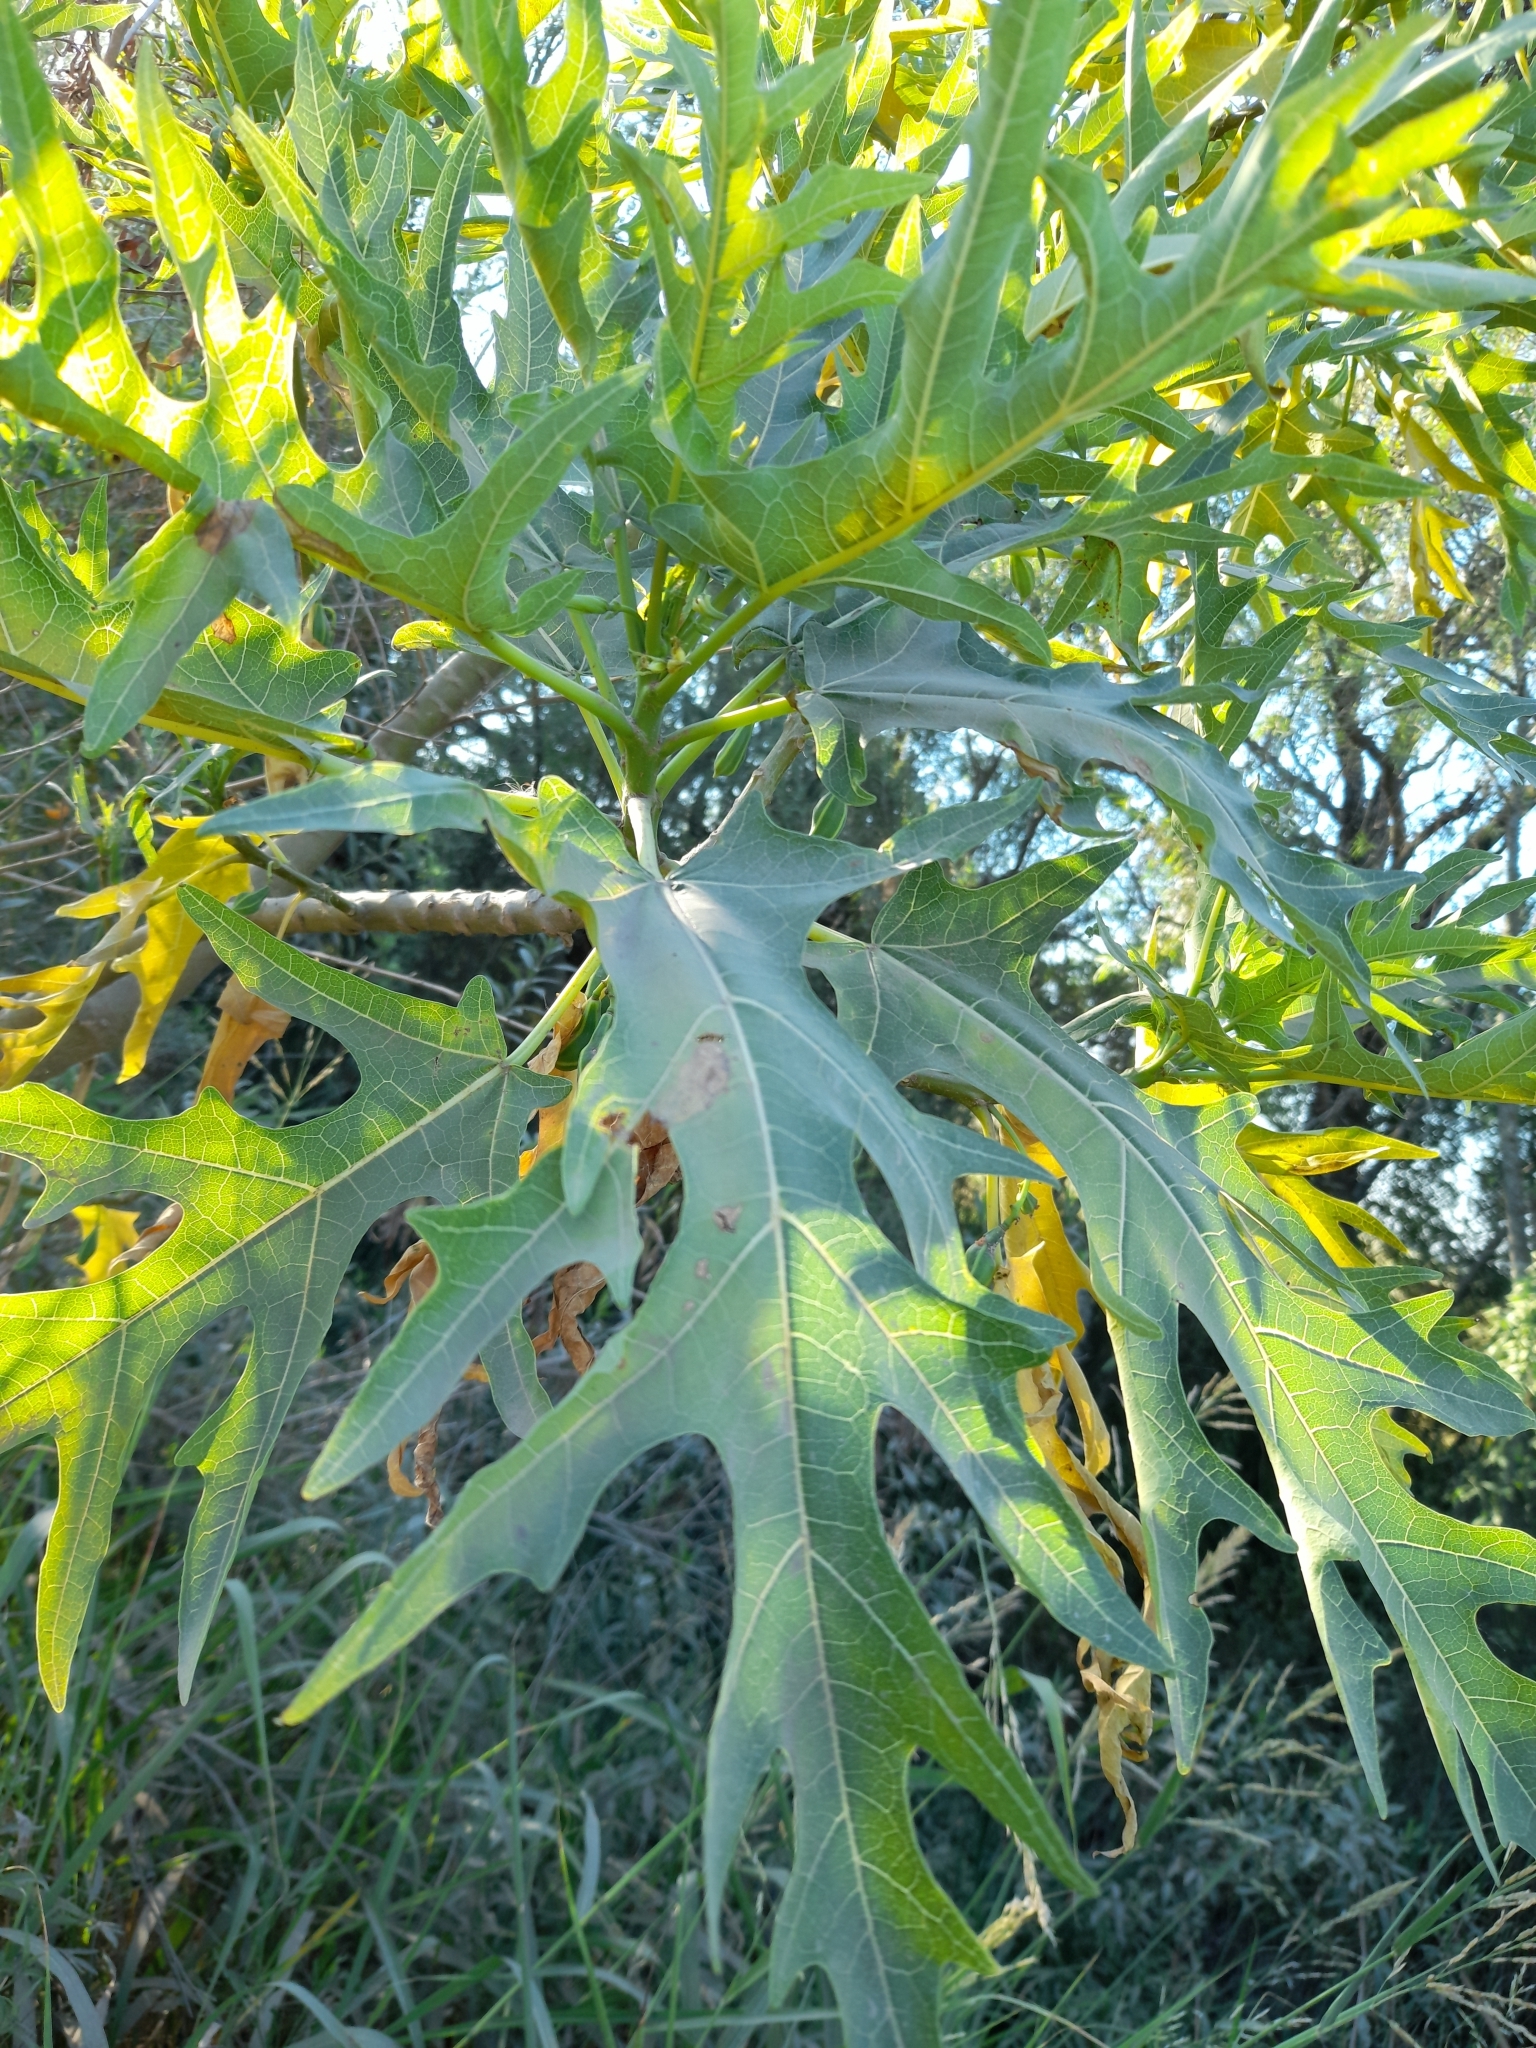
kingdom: Plantae
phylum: Tracheophyta
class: Magnoliopsida
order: Brassicales
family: Caricaceae
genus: Vasconcellea
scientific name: Vasconcellea quercifolia
